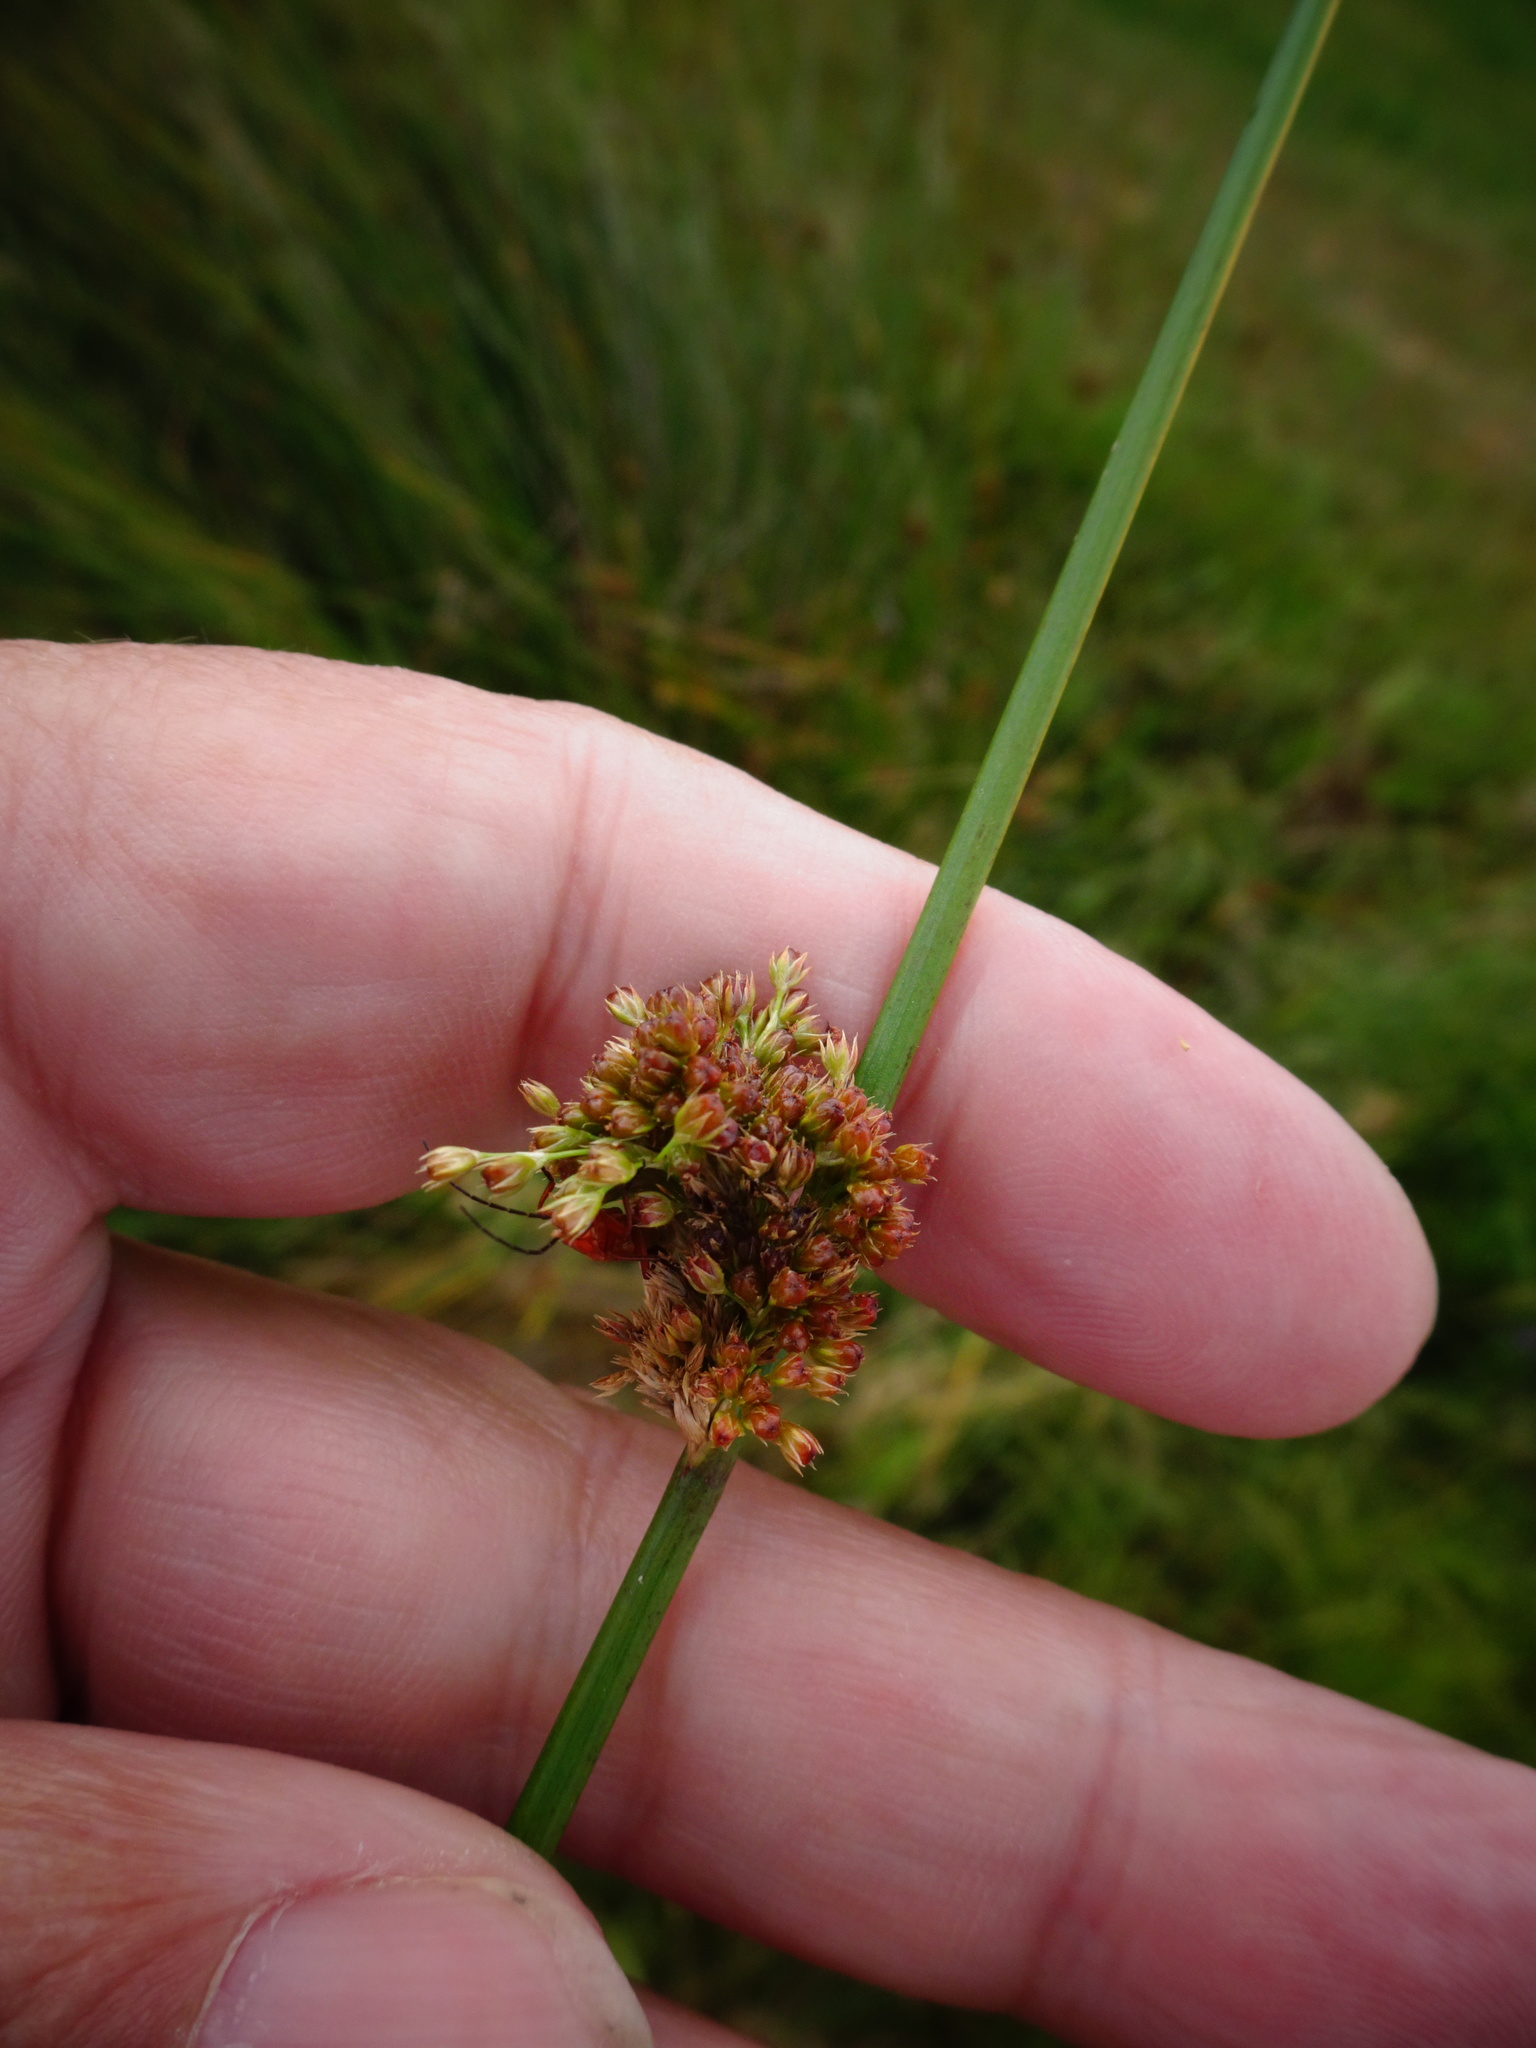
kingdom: Plantae
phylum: Tracheophyta
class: Liliopsida
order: Poales
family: Juncaceae
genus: Juncus
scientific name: Juncus effusus
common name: Soft rush
